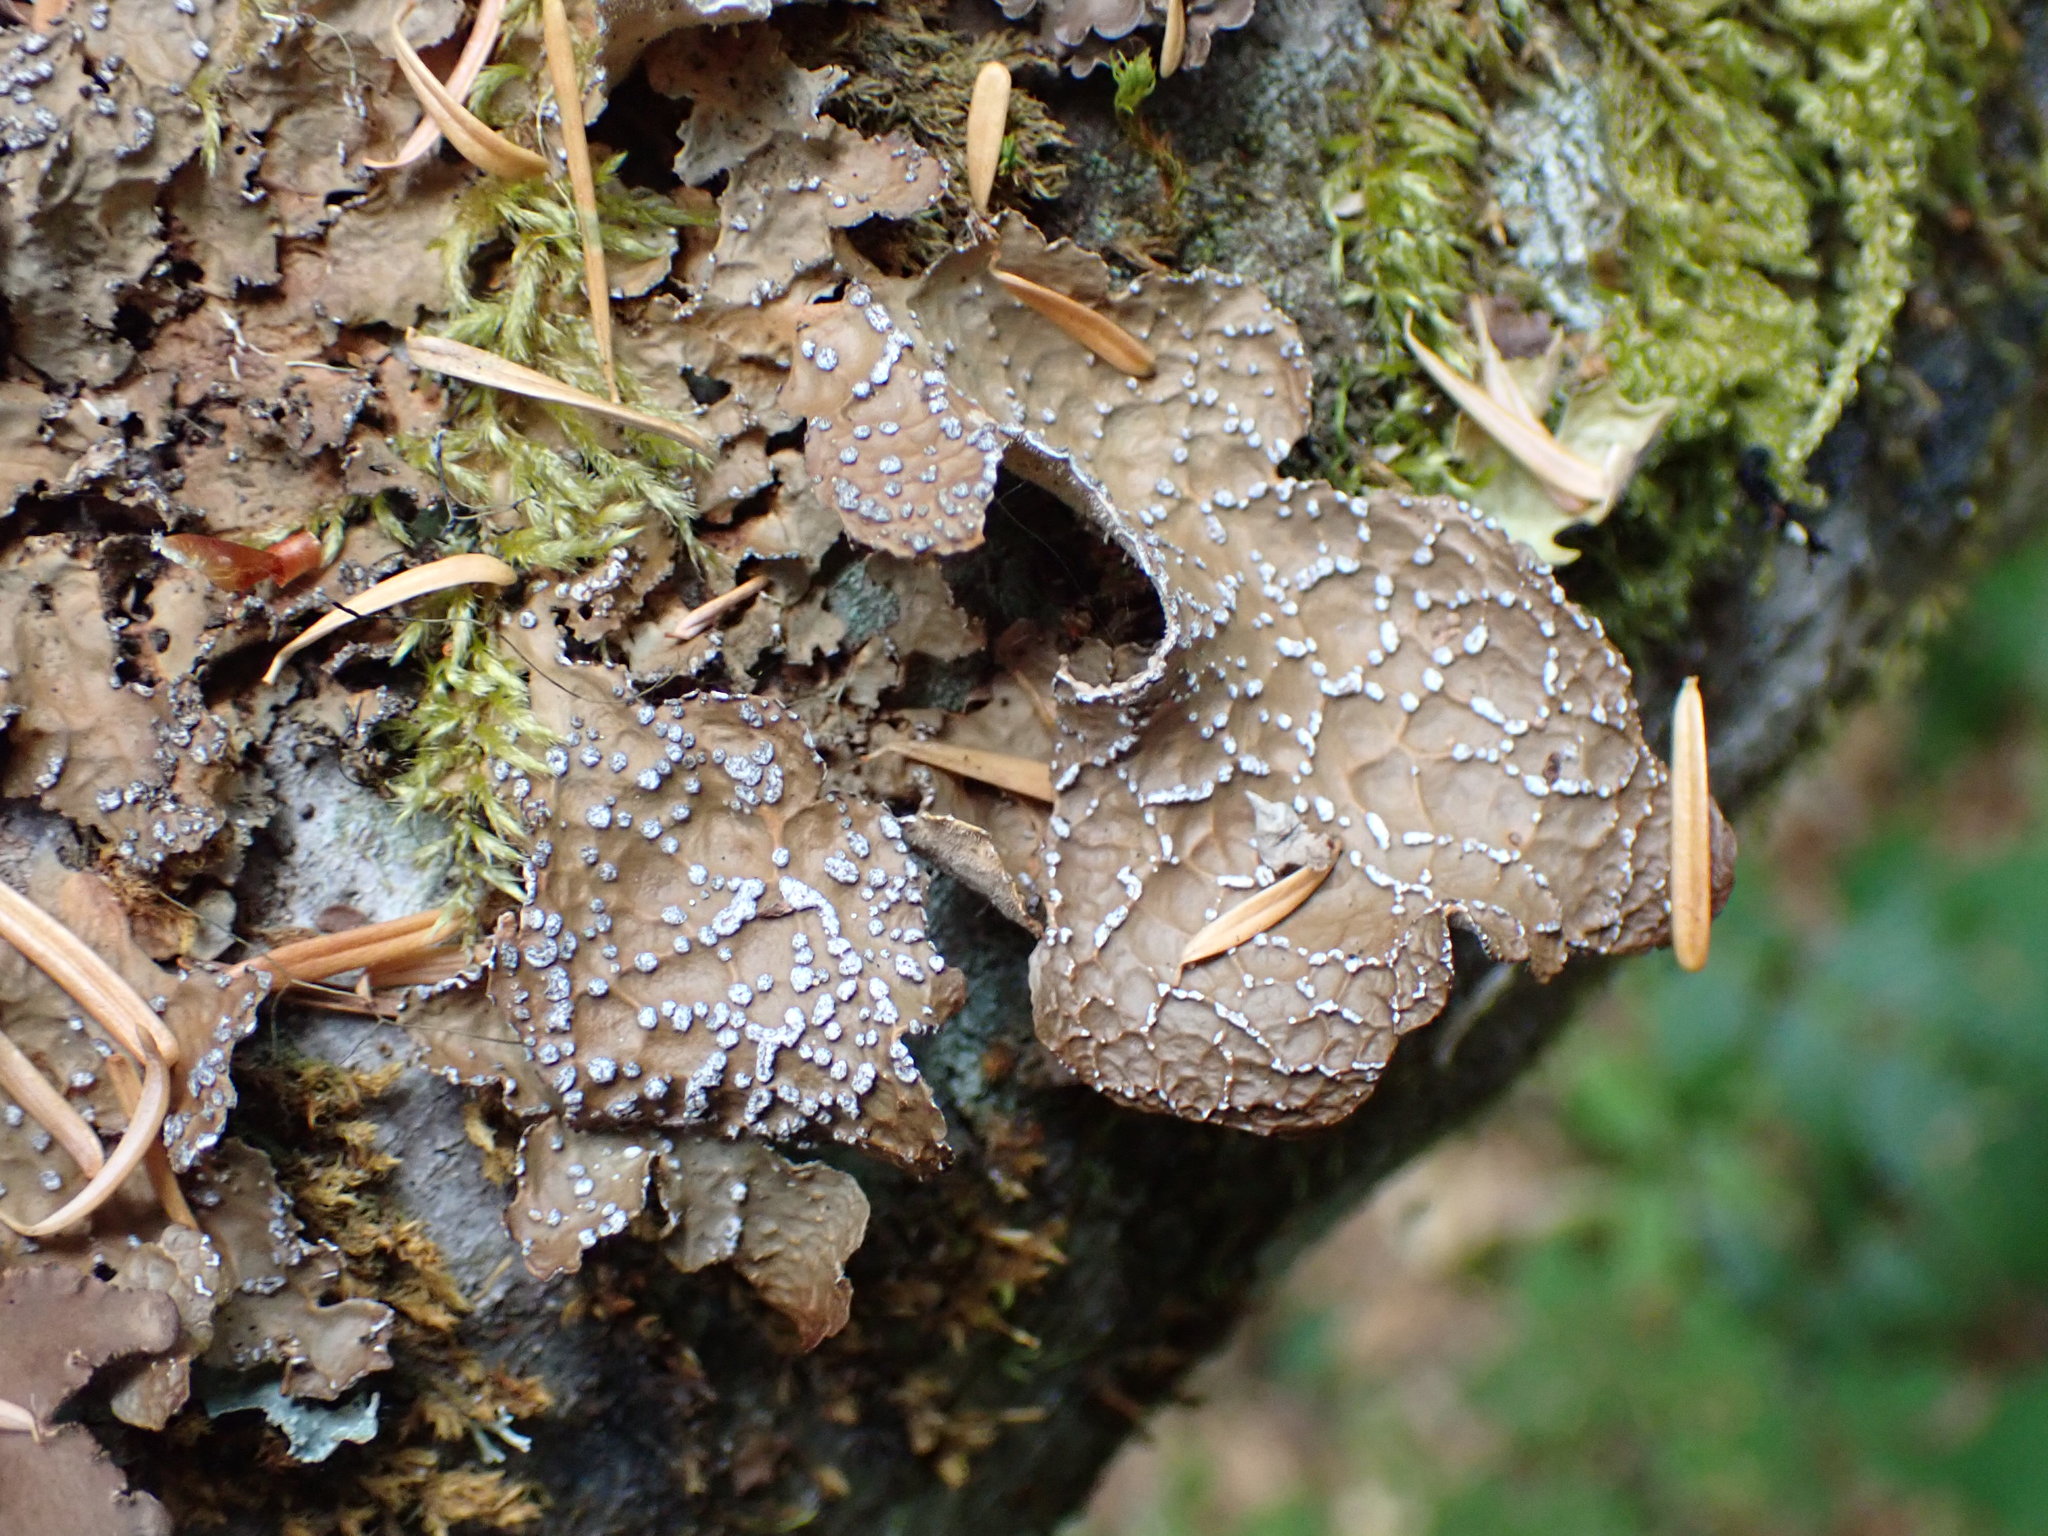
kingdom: Fungi
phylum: Ascomycota
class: Lecanoromycetes
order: Peltigerales
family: Lobariaceae
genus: Lobaria
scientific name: Lobaria anomala
